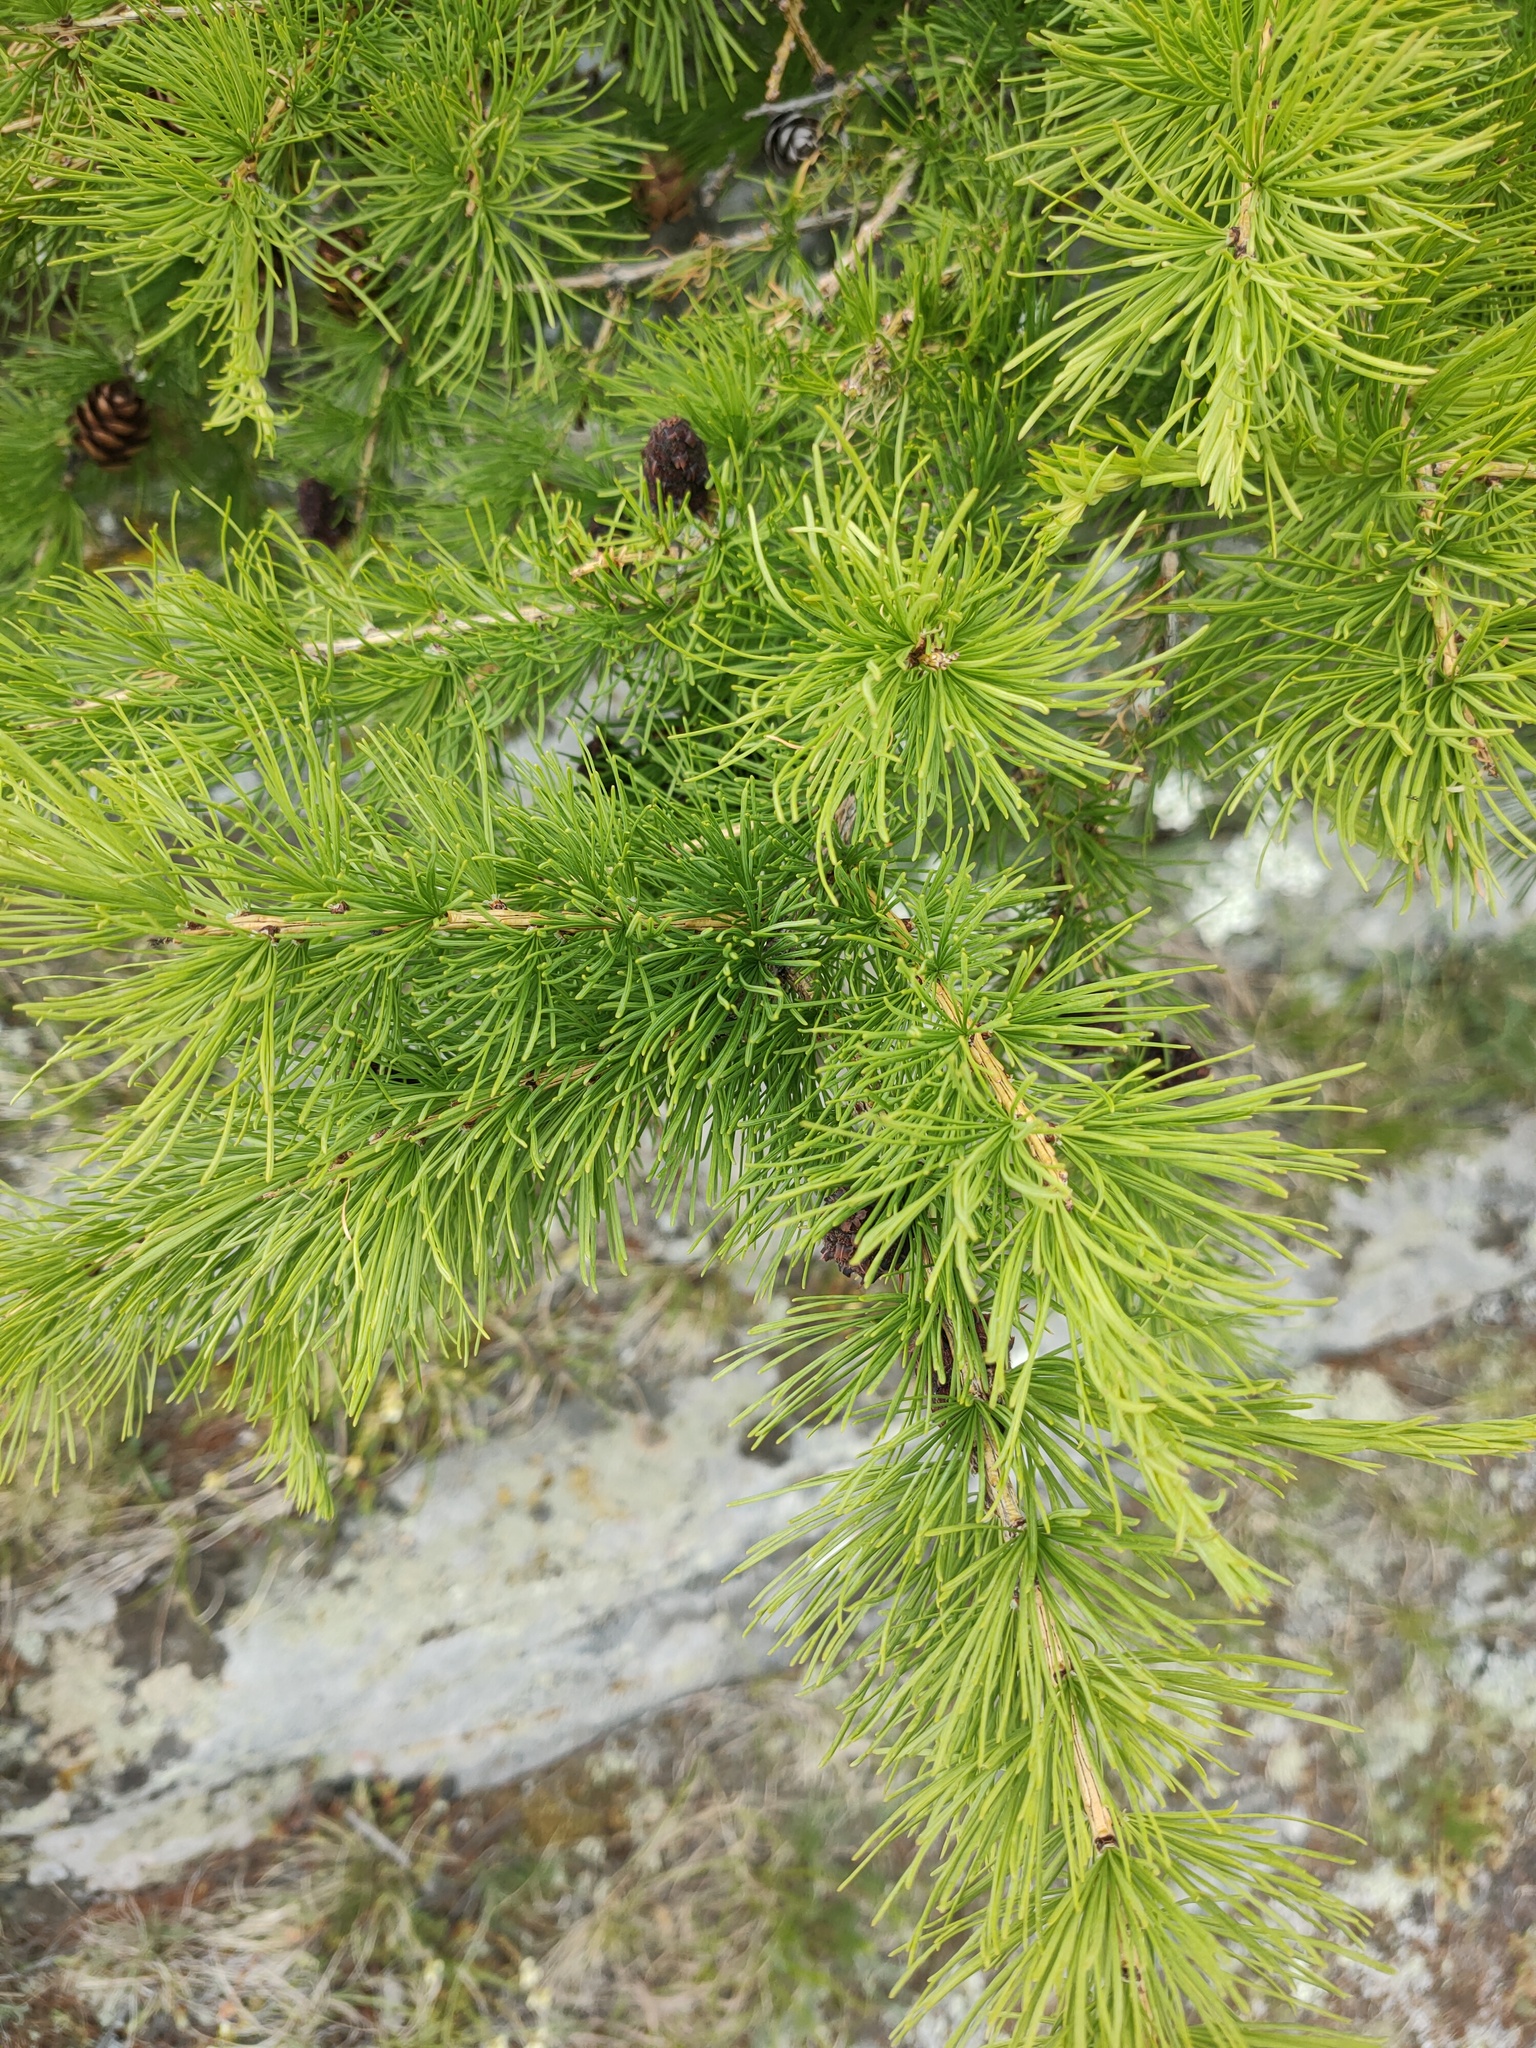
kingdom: Plantae
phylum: Tracheophyta
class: Pinopsida
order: Pinales
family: Pinaceae
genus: Larix
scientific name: Larix sibirica
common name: Siberian larch
